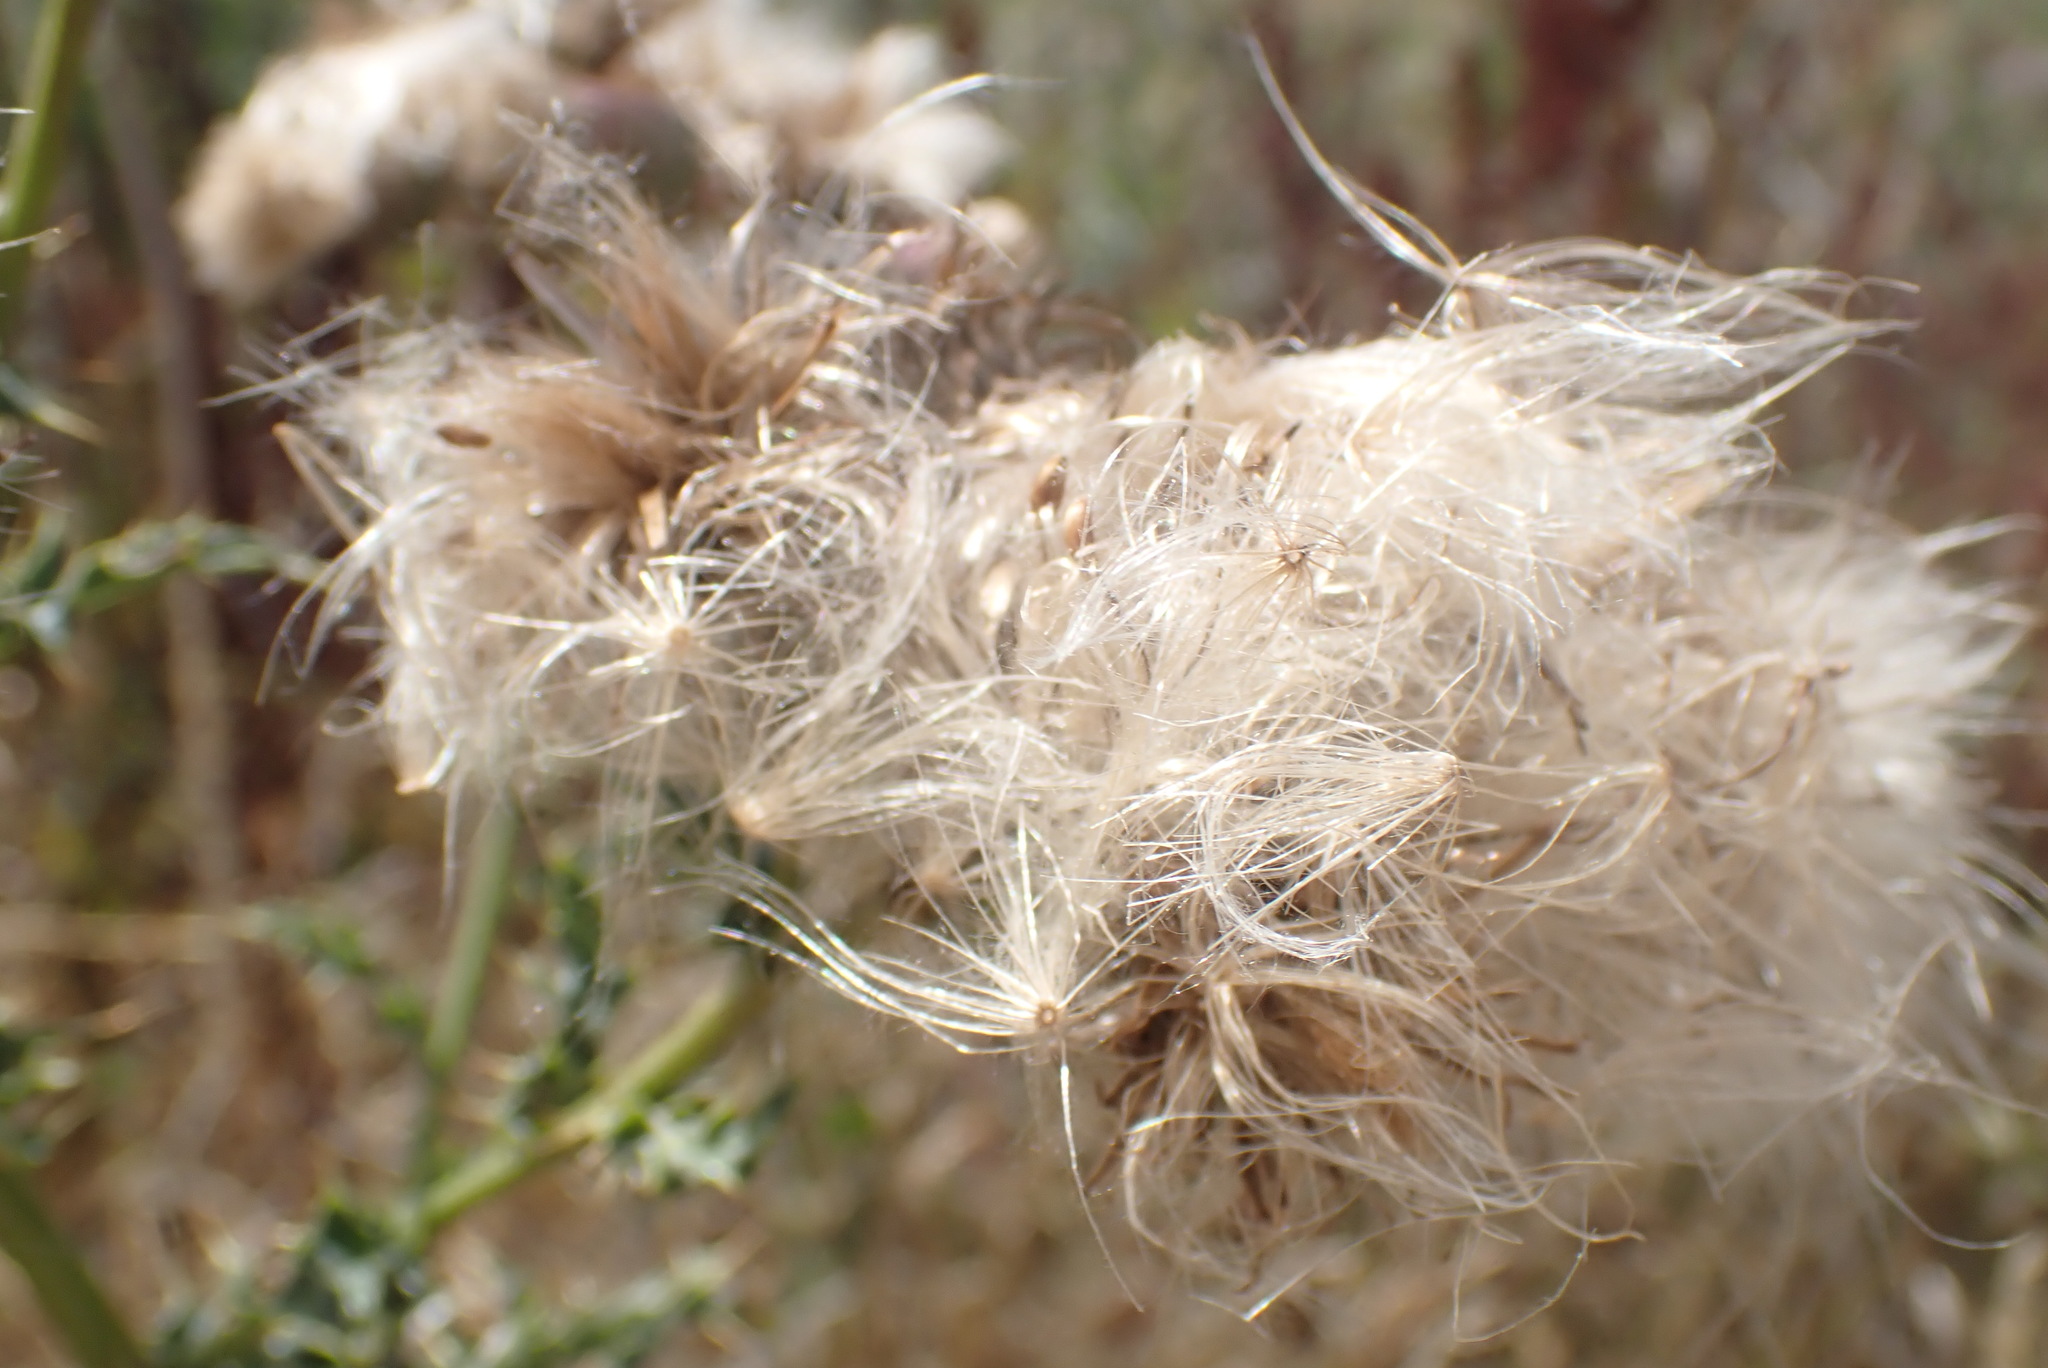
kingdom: Plantae
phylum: Tracheophyta
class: Magnoliopsida
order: Asterales
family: Asteraceae
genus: Cirsium
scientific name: Cirsium arvense
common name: Creeping thistle
